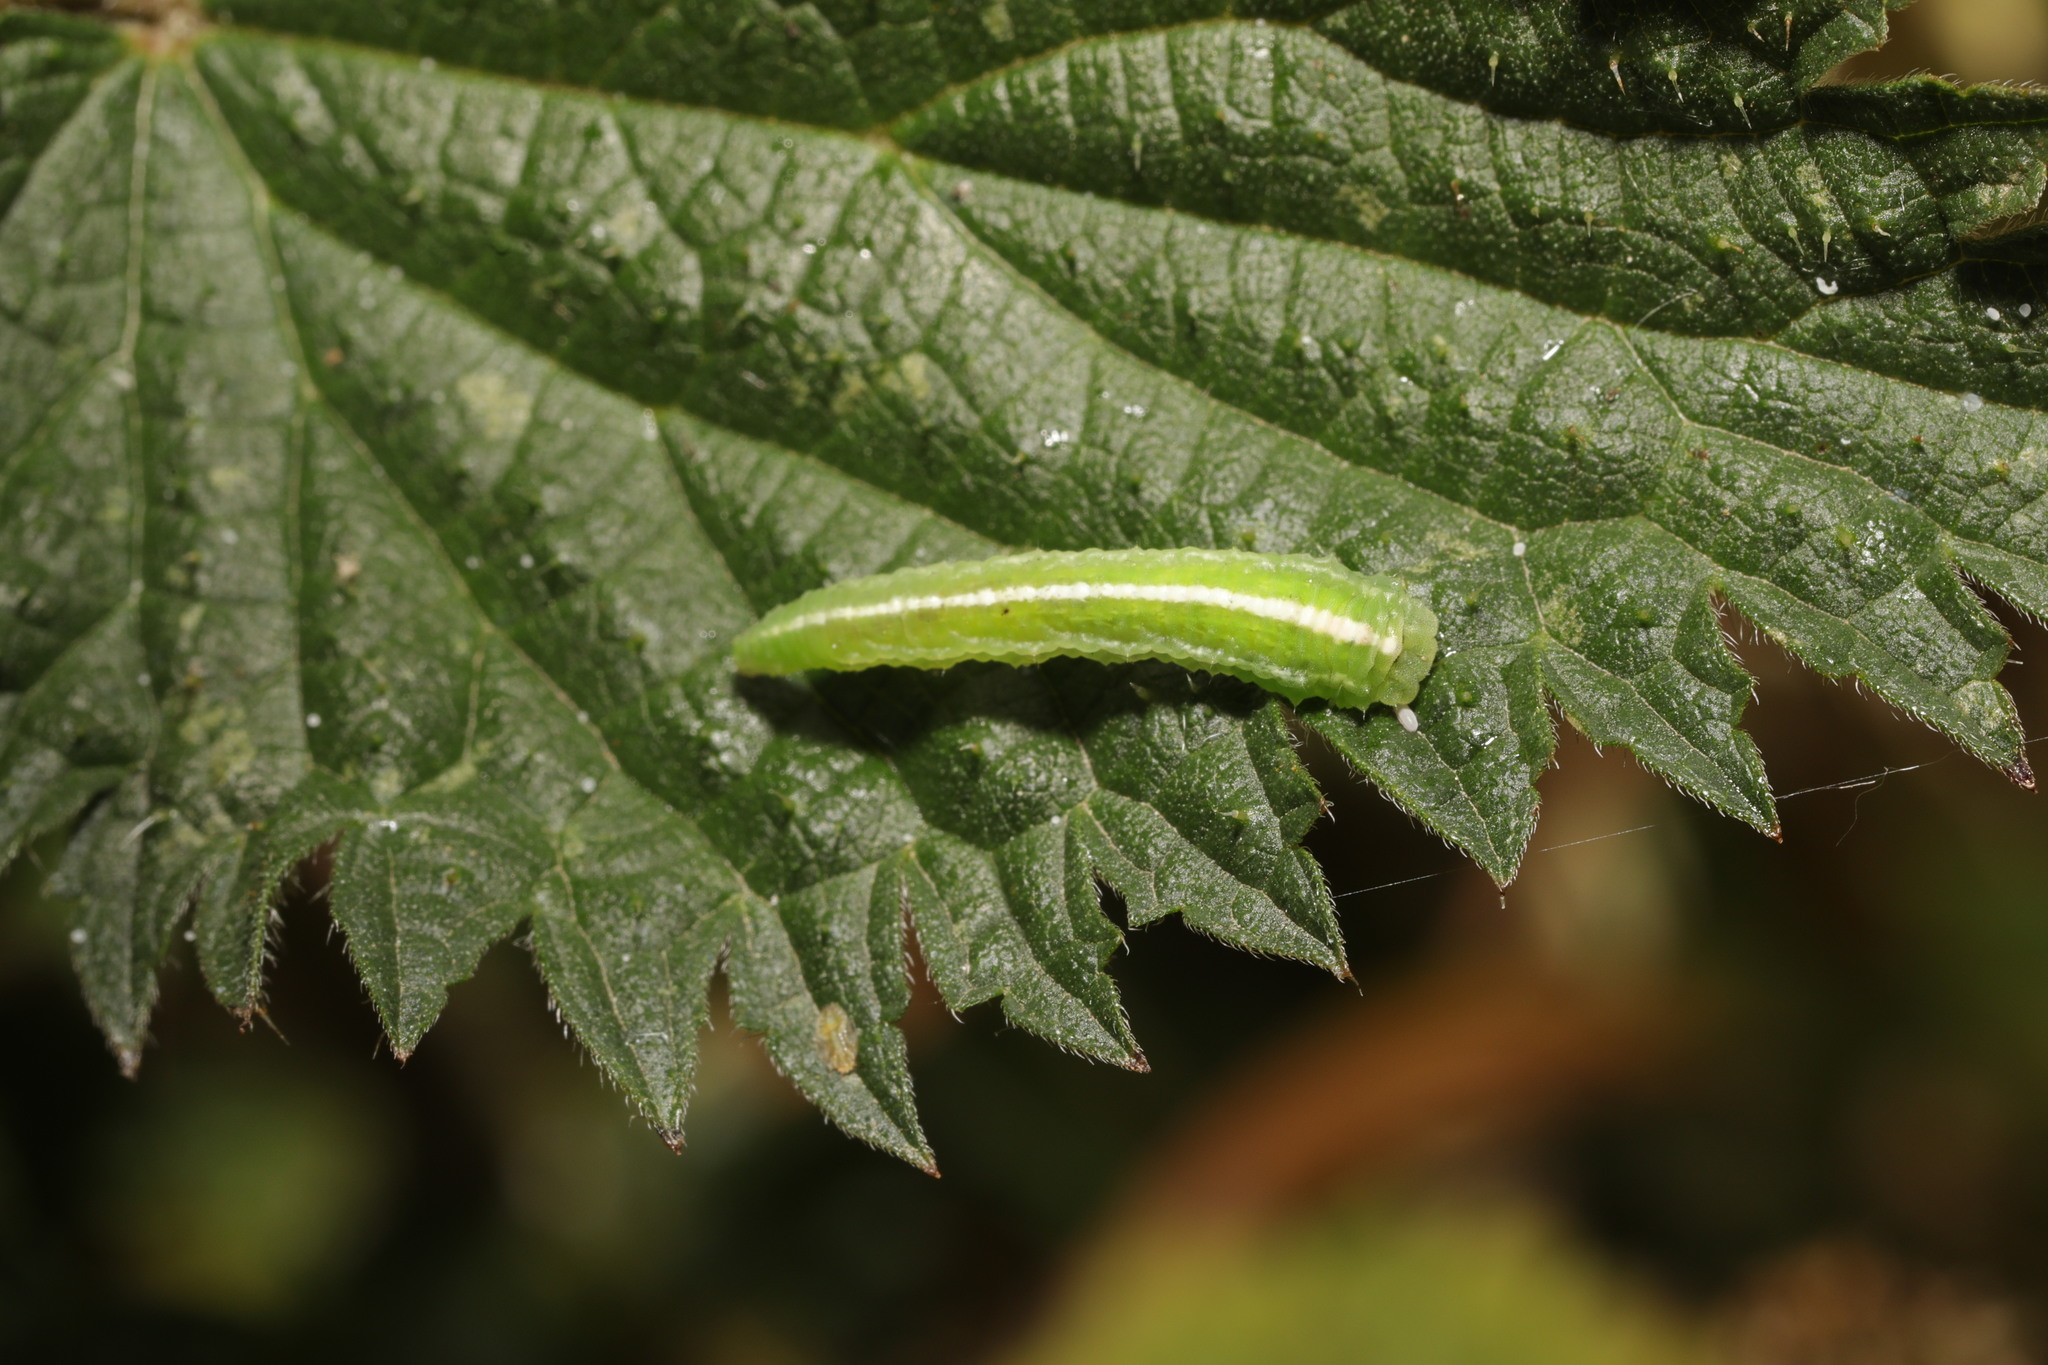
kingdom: Animalia
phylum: Arthropoda
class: Insecta
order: Diptera
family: Syrphidae
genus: Scaeva
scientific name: Scaeva
